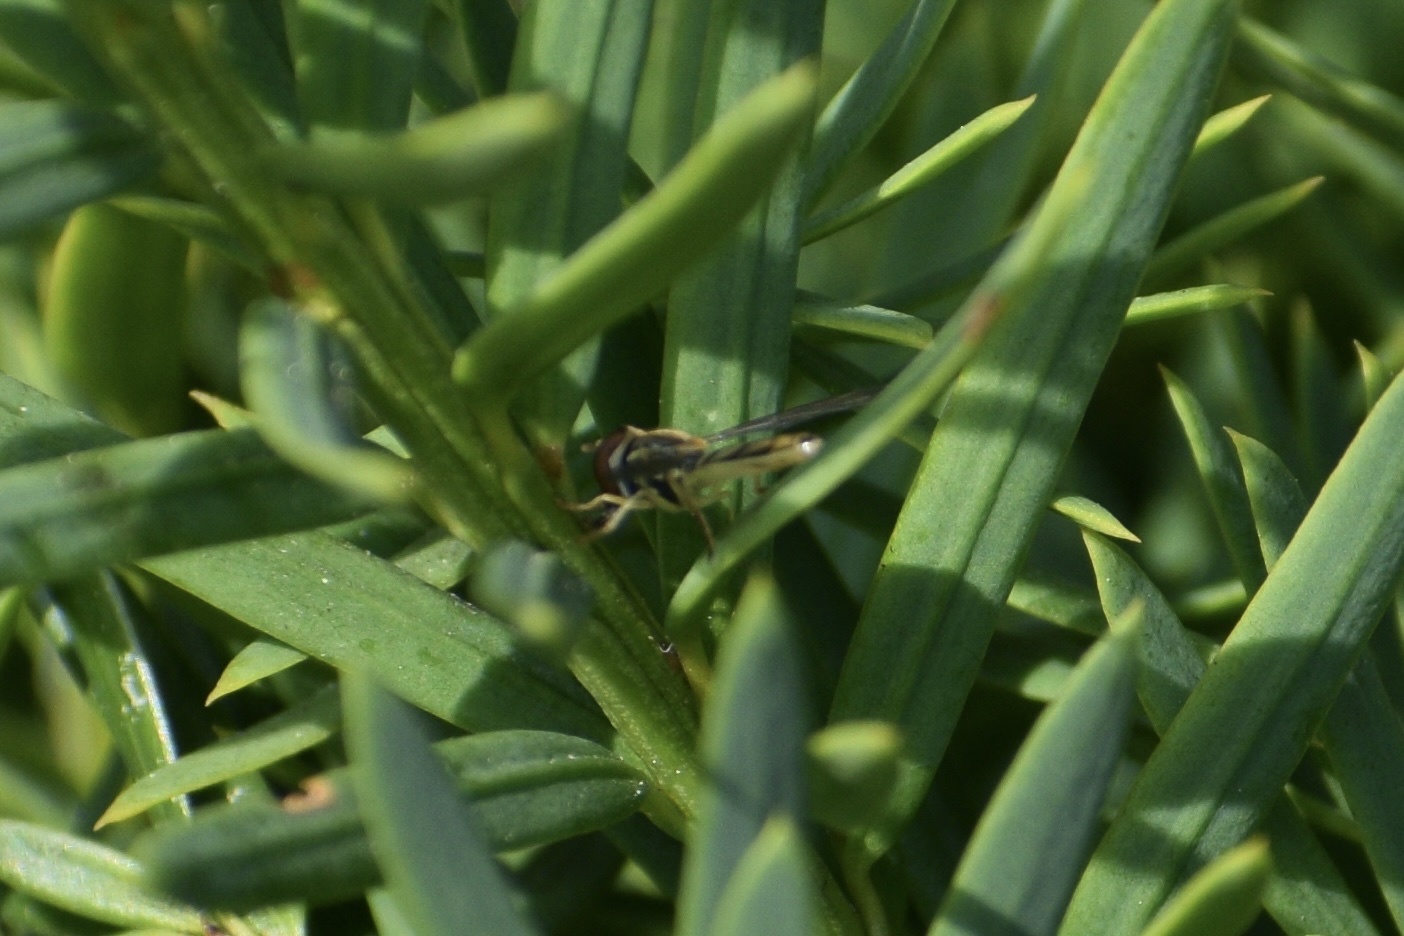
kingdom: Animalia
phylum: Arthropoda
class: Insecta
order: Diptera
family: Syrphidae
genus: Toxomerus
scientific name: Toxomerus marginatus
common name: Syrphid fly
